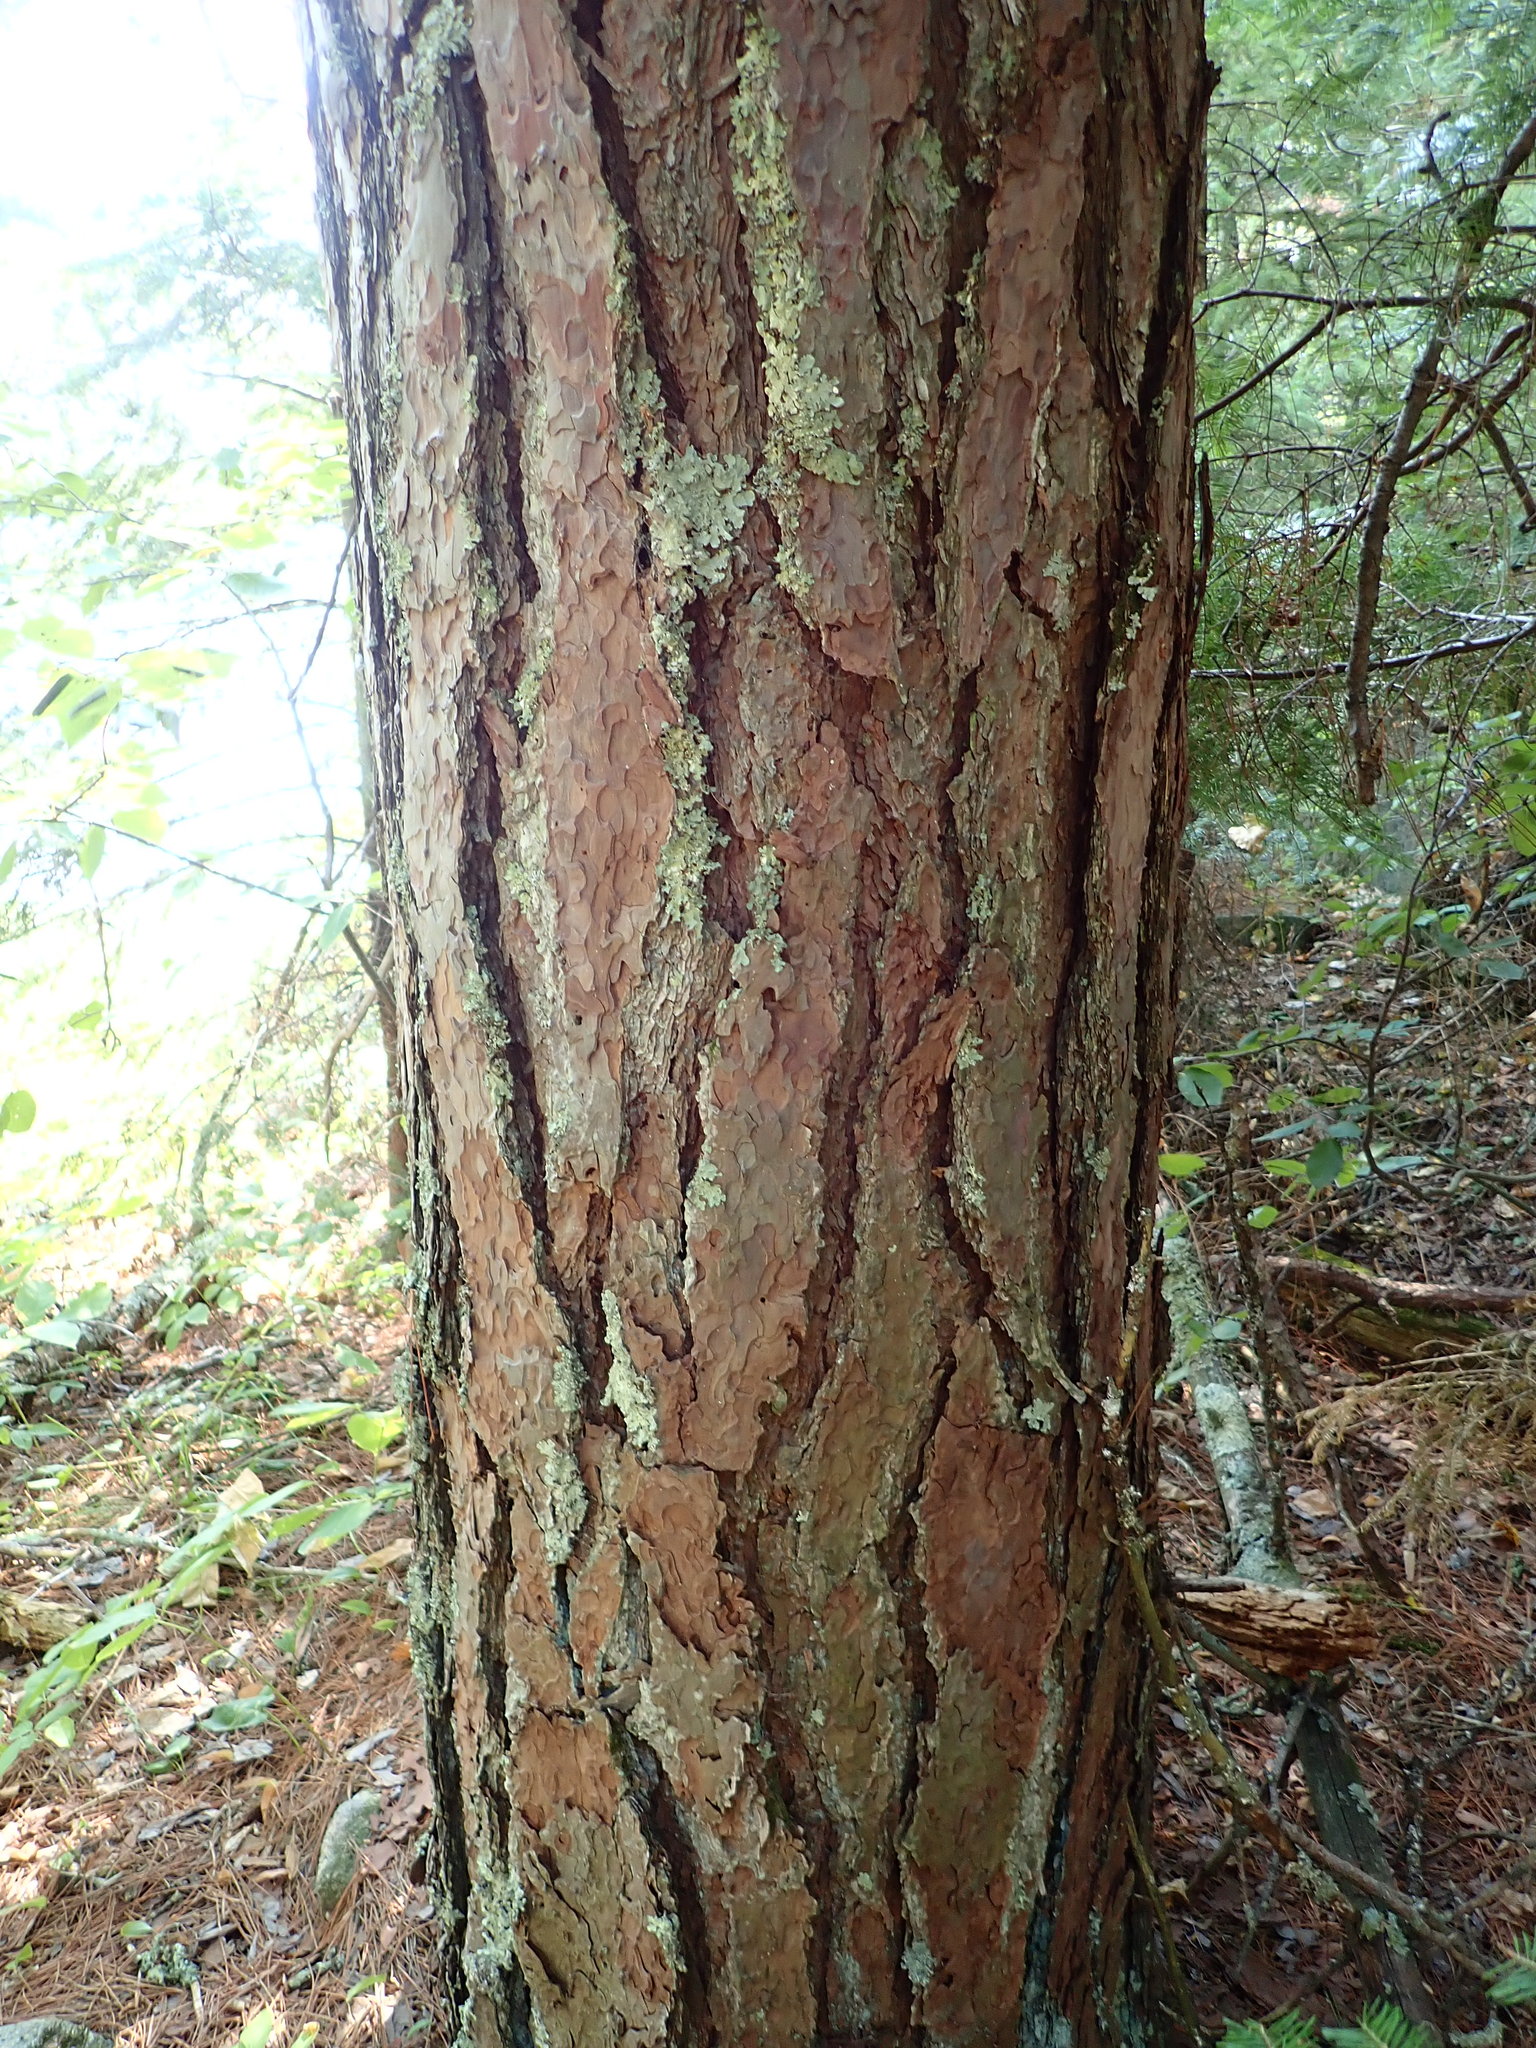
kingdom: Plantae
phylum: Tracheophyta
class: Pinopsida
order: Pinales
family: Pinaceae
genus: Pinus
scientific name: Pinus resinosa
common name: Norway pine
